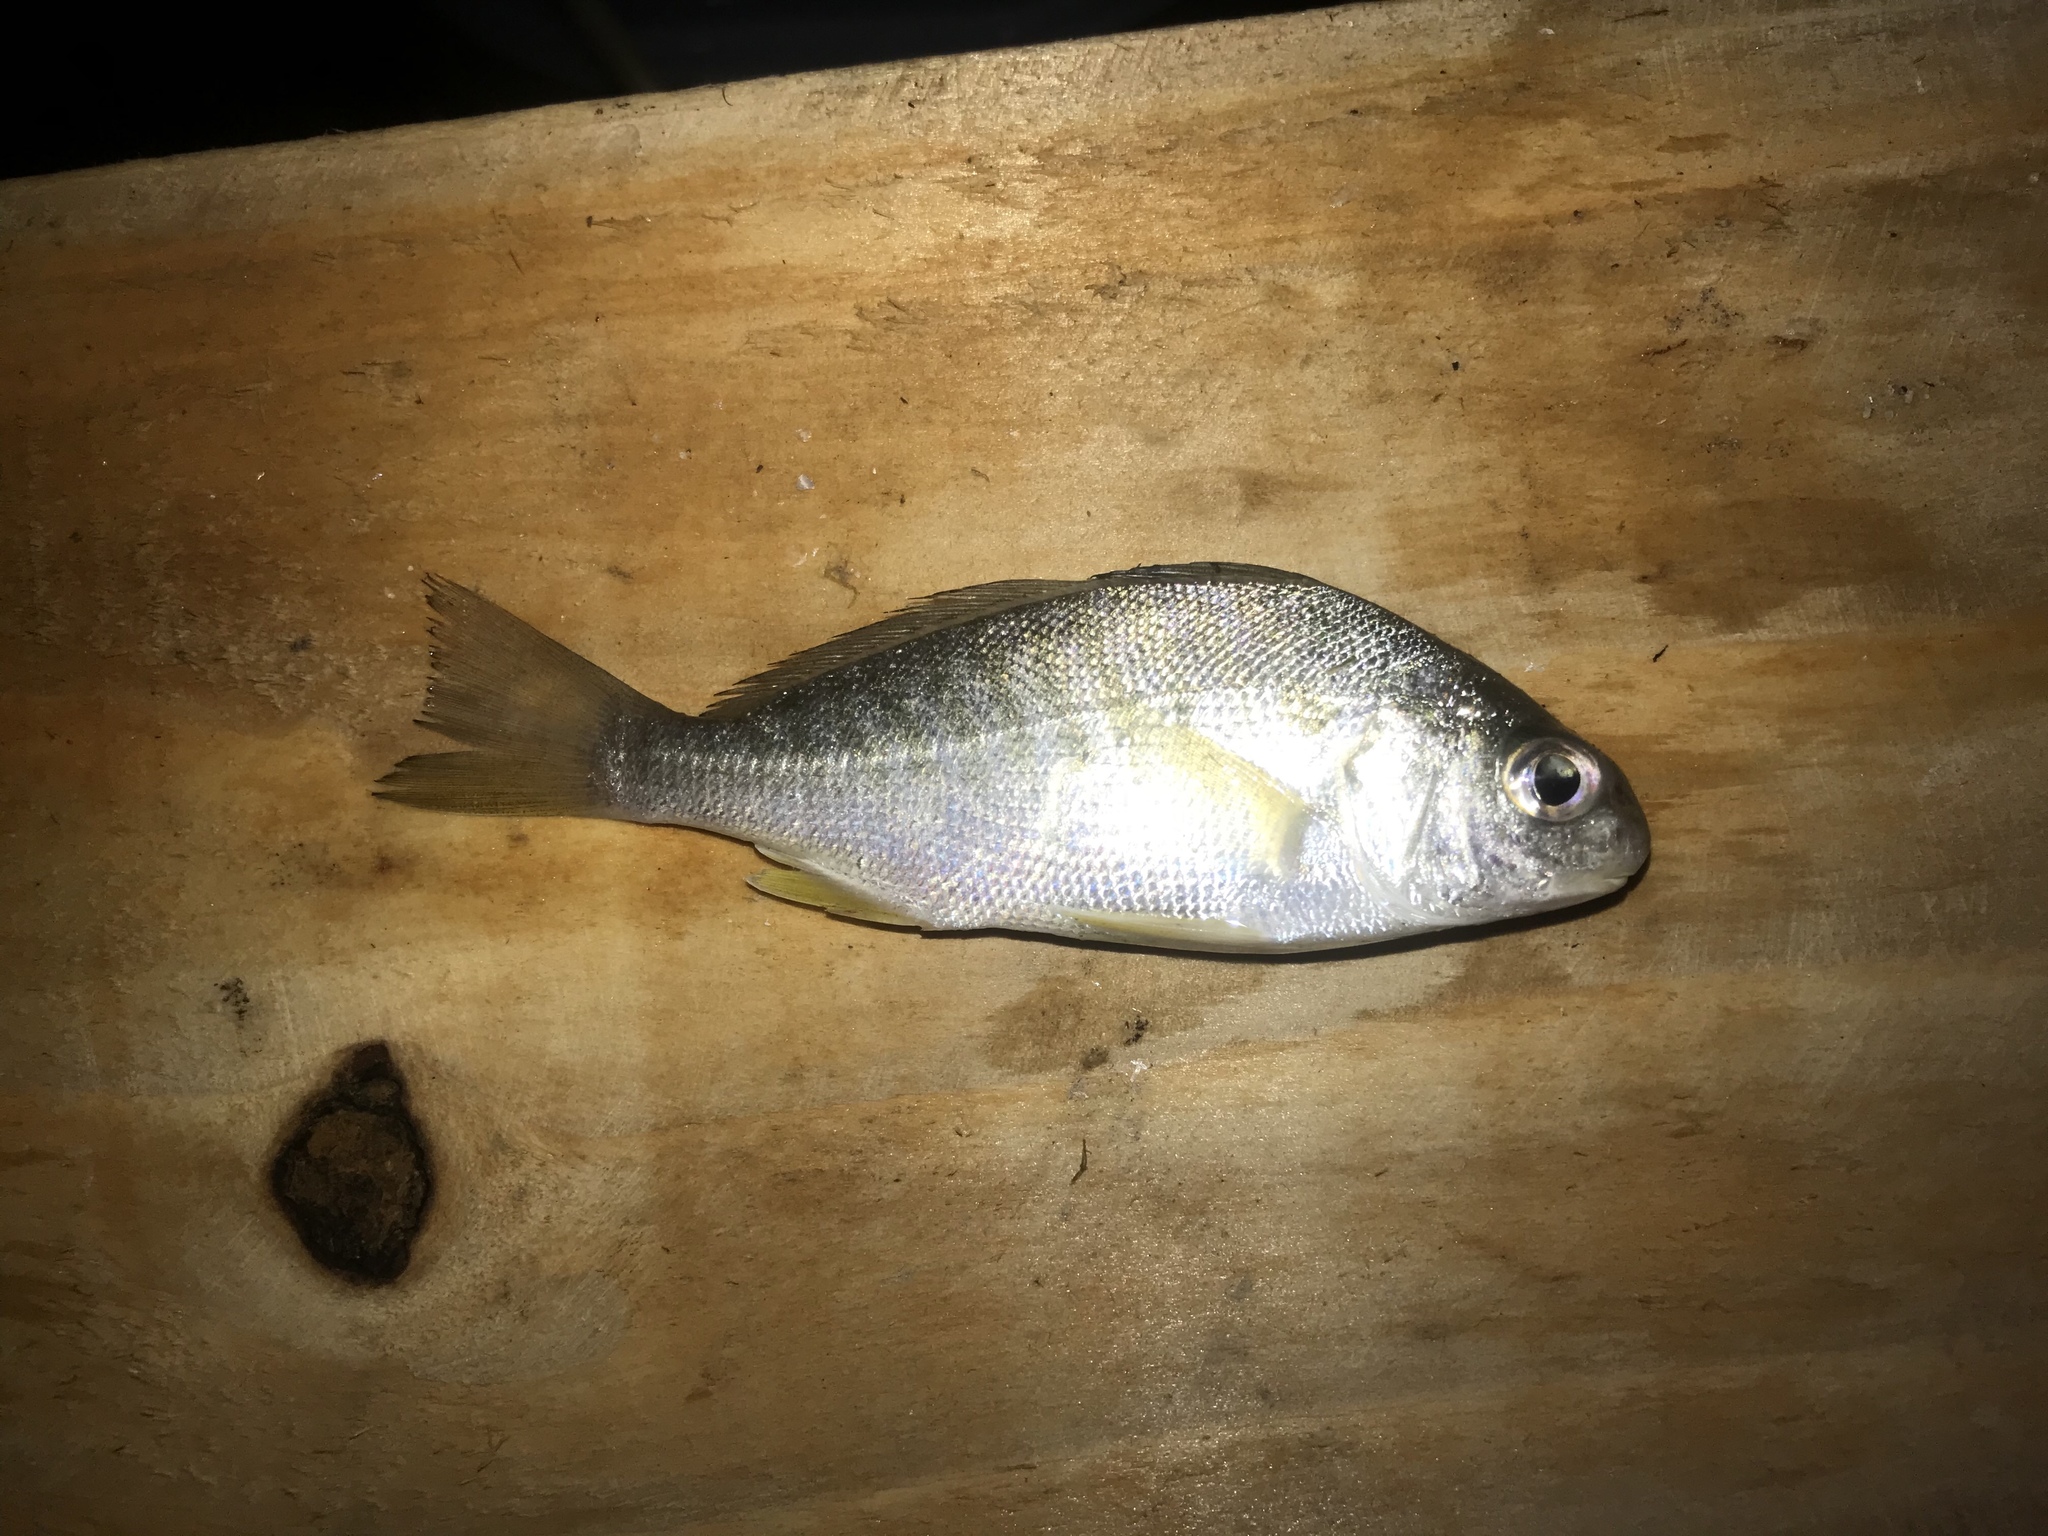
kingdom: Animalia
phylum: Chordata
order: Perciformes
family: Sciaenidae
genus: Leiostomus
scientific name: Leiostomus xanthurus
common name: Spot
